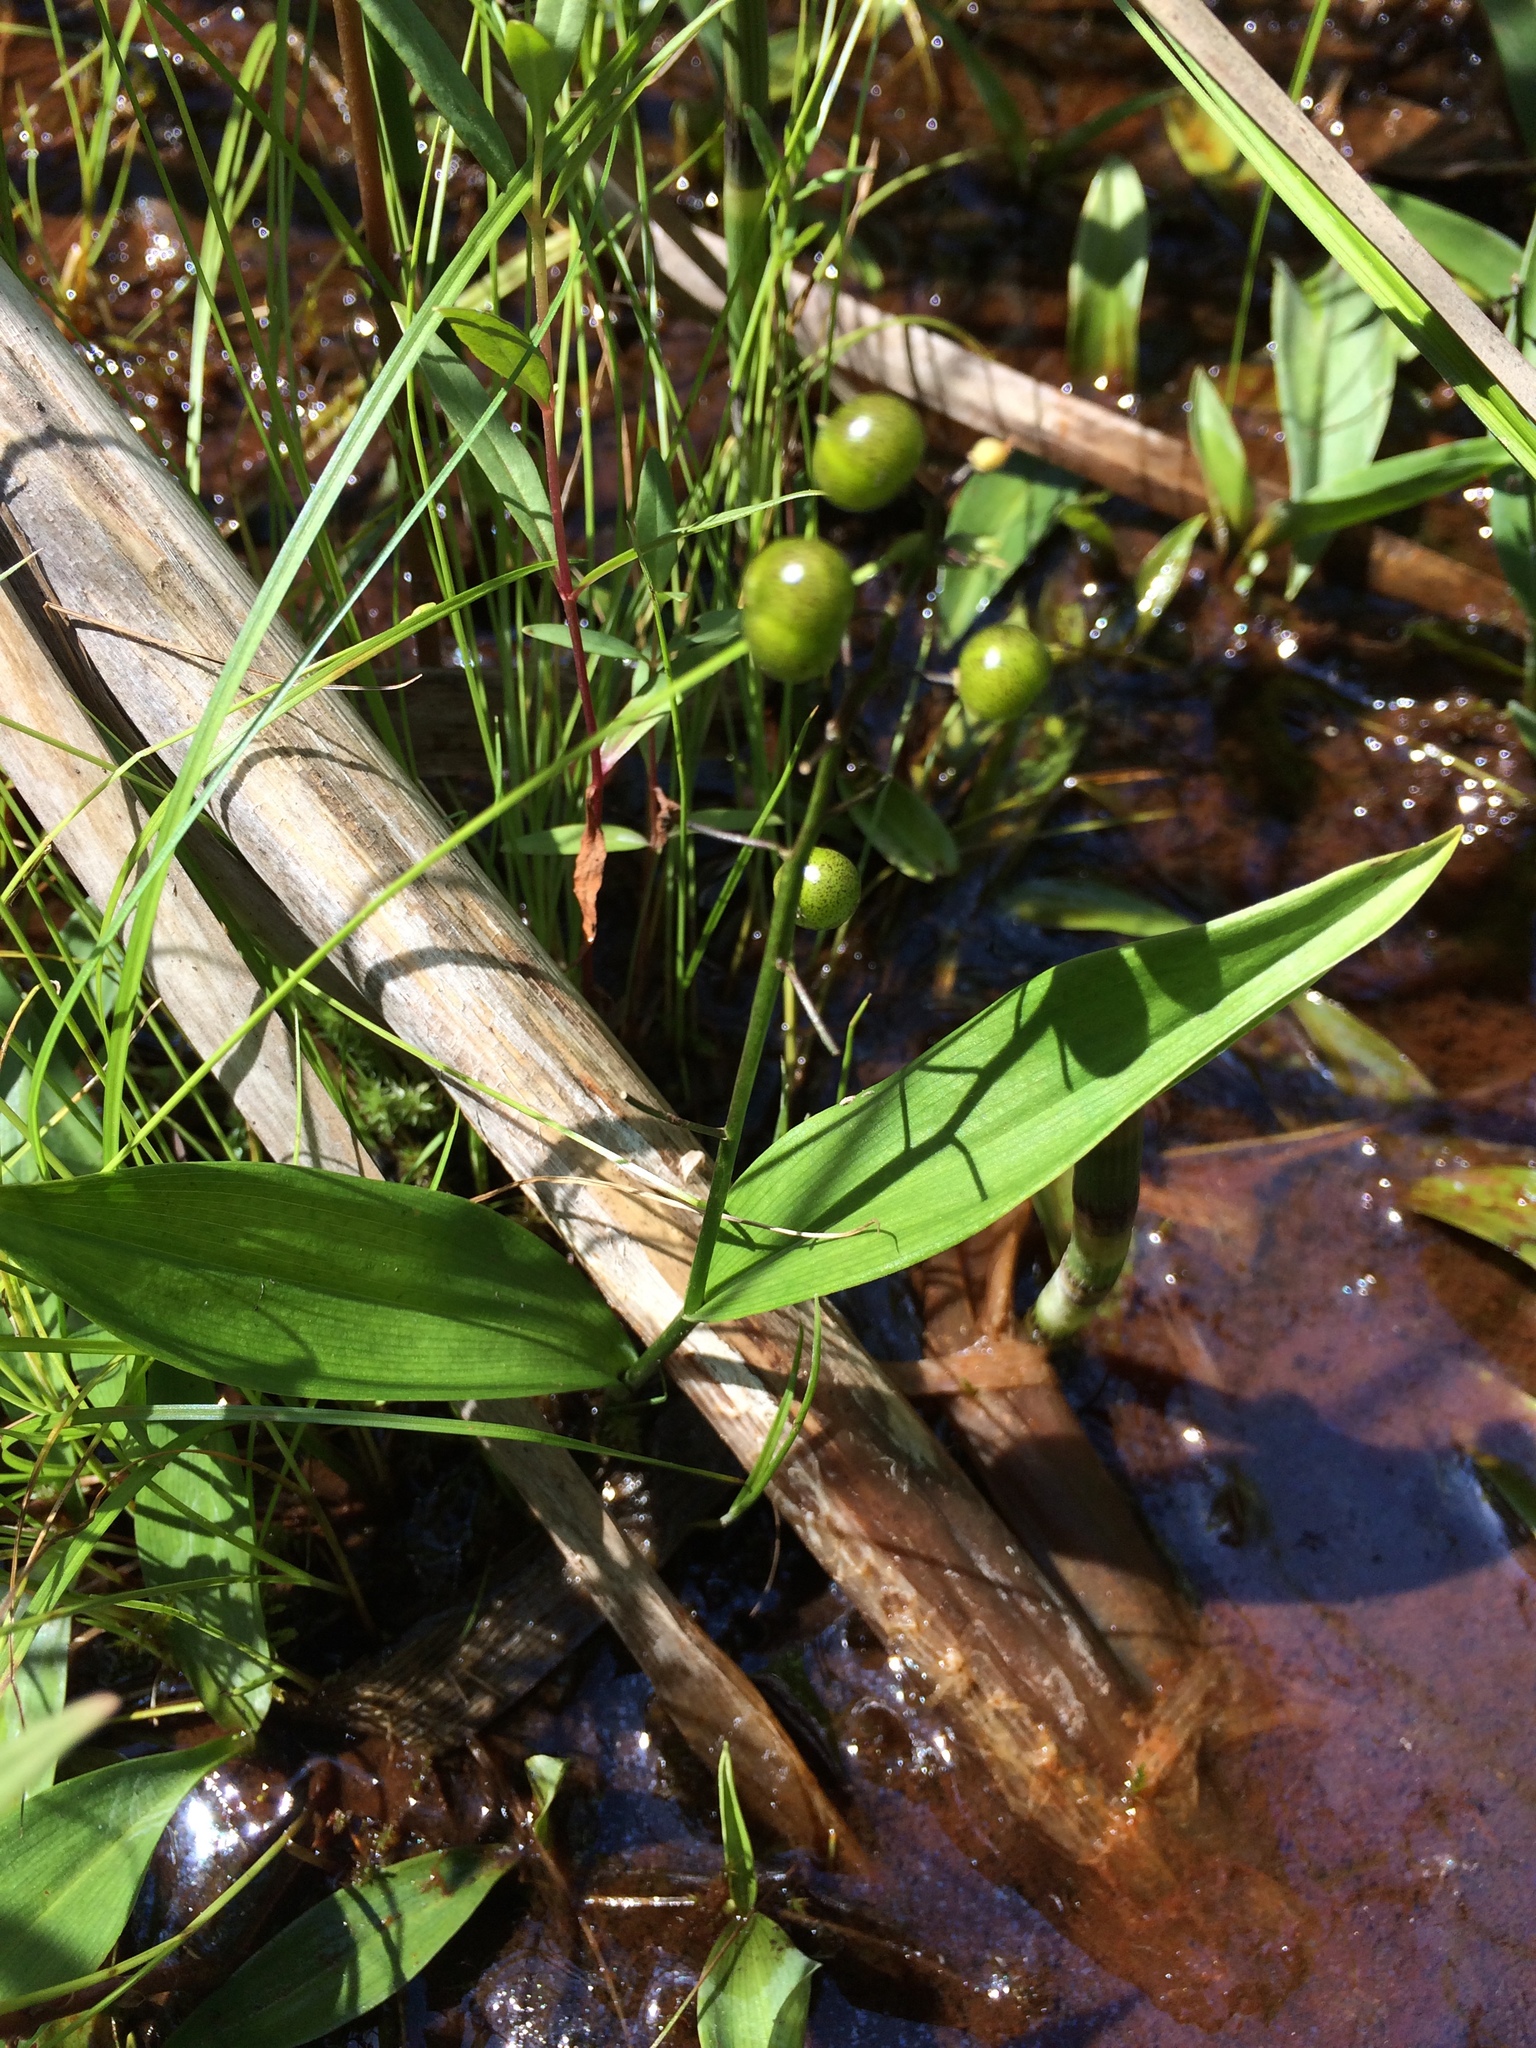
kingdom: Plantae
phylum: Tracheophyta
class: Liliopsida
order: Asparagales
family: Asparagaceae
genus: Maianthemum
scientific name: Maianthemum trifolium
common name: Swamp false solomon's seal
